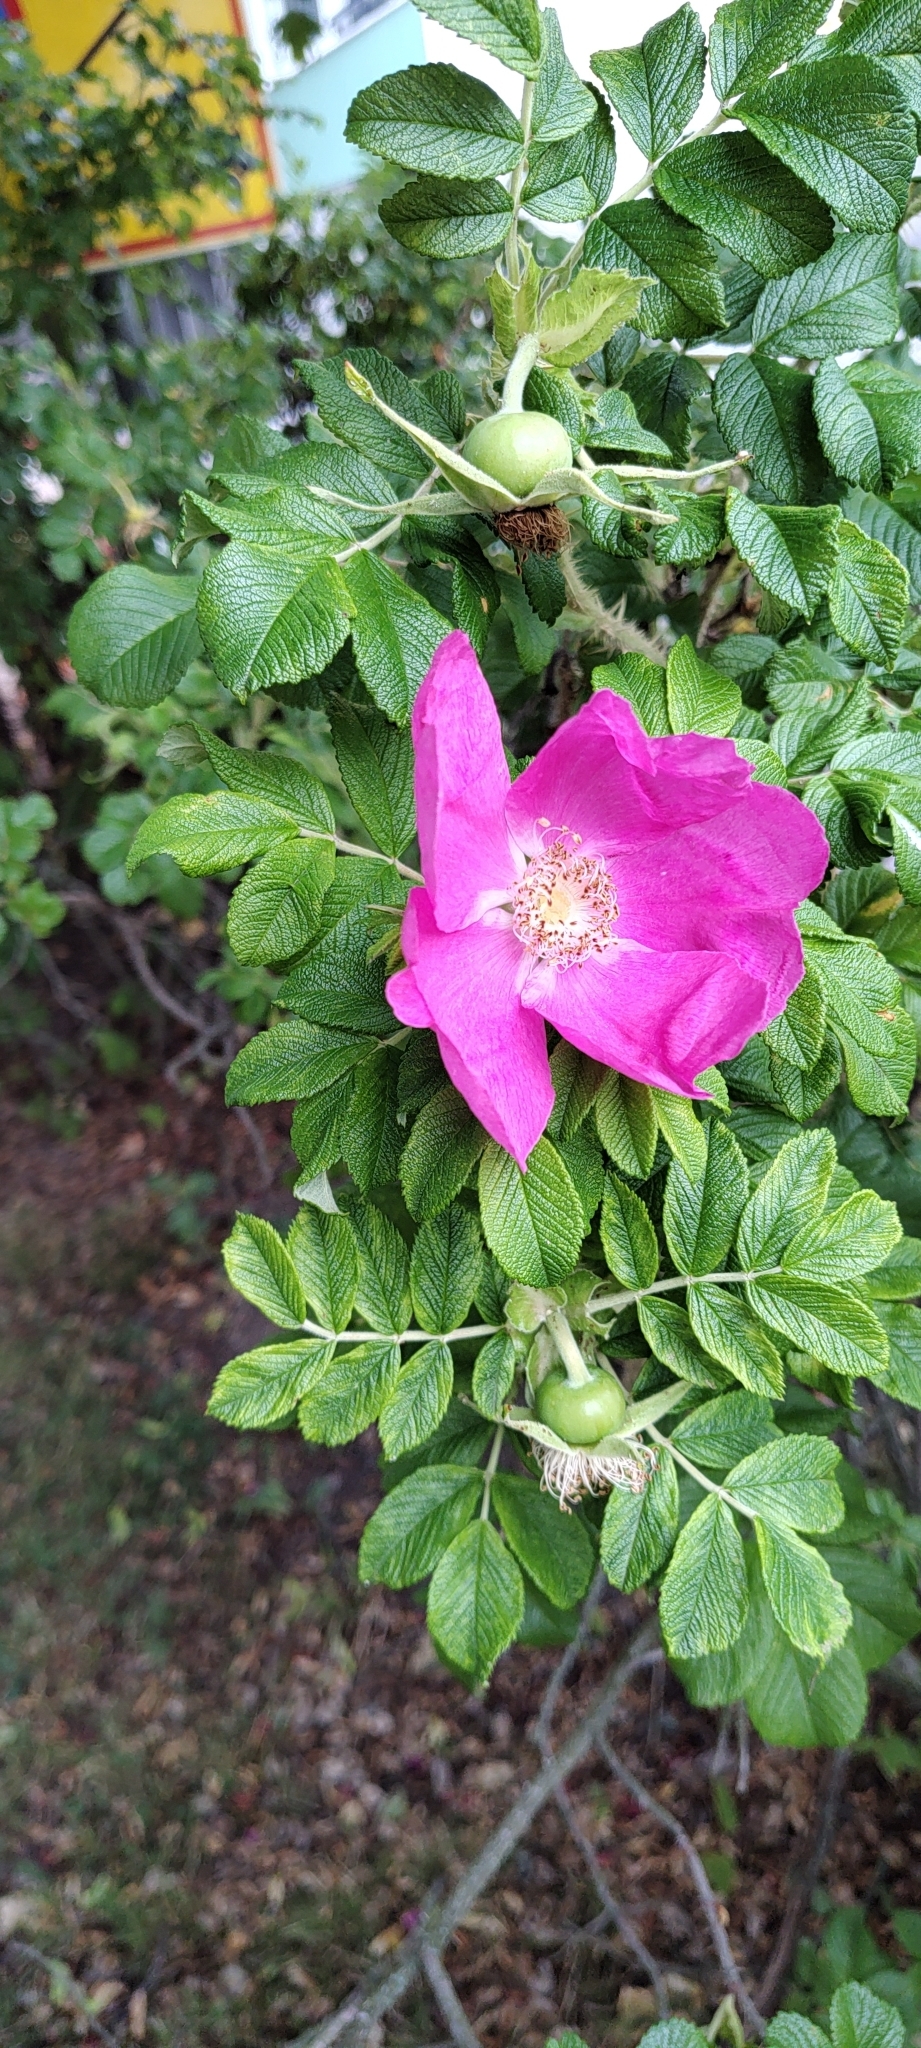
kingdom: Plantae
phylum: Tracheophyta
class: Magnoliopsida
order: Rosales
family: Rosaceae
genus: Rosa
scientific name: Rosa rugosa
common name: Japanese rose
